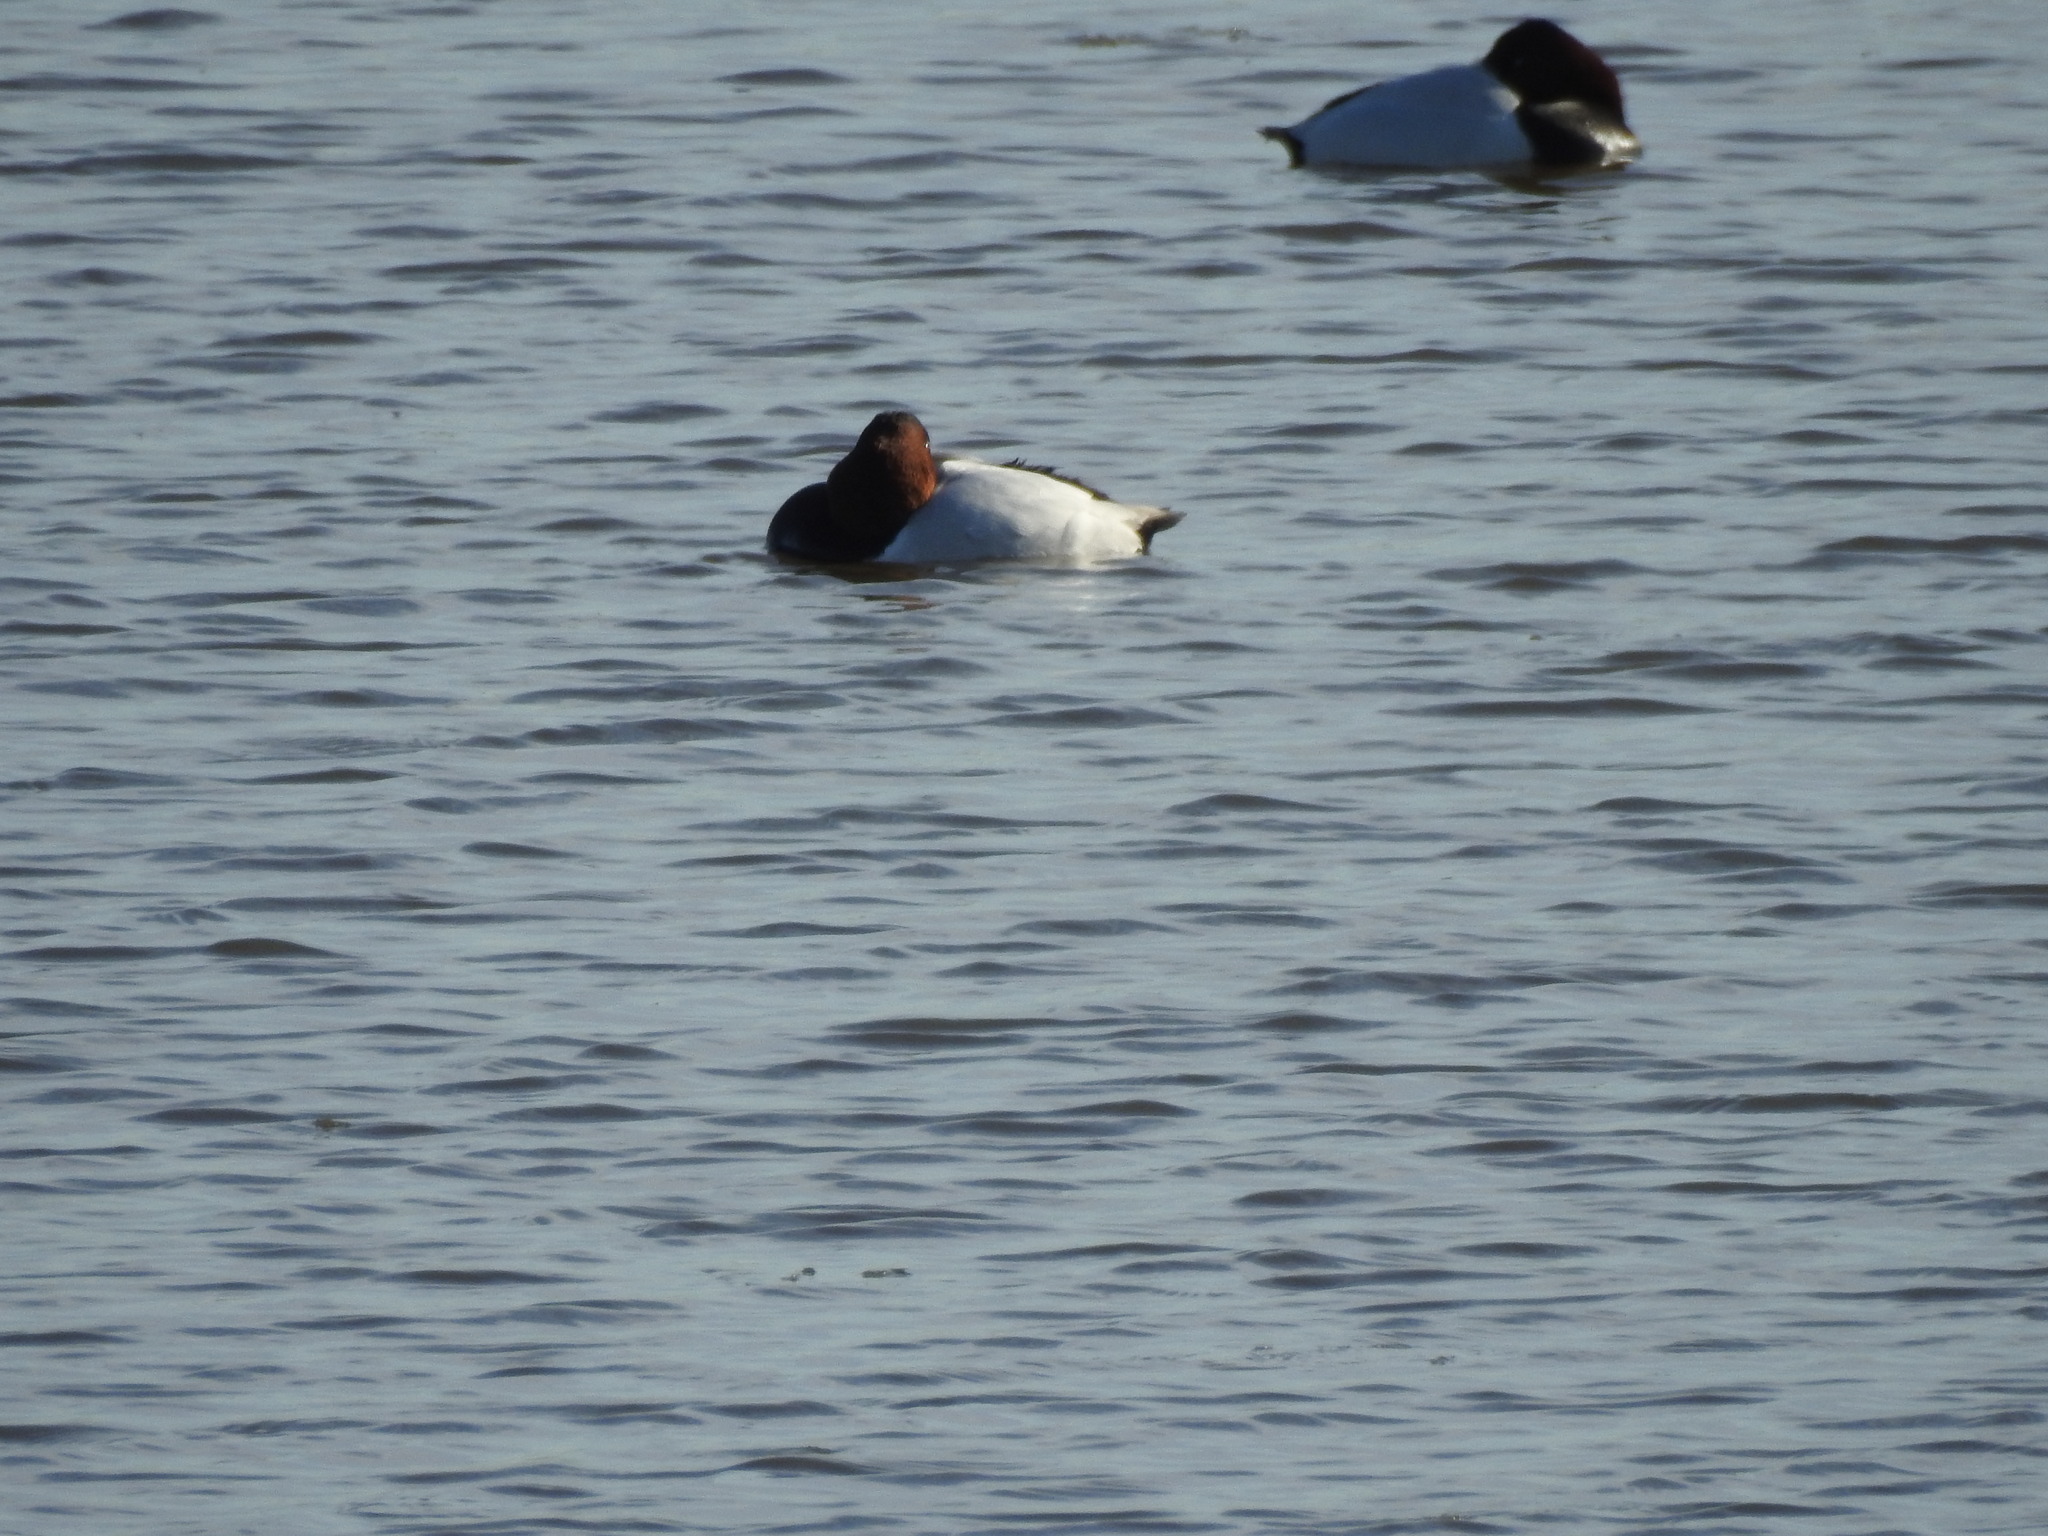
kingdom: Animalia
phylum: Chordata
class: Aves
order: Anseriformes
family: Anatidae
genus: Aythya
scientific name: Aythya valisineria
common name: Canvasback
